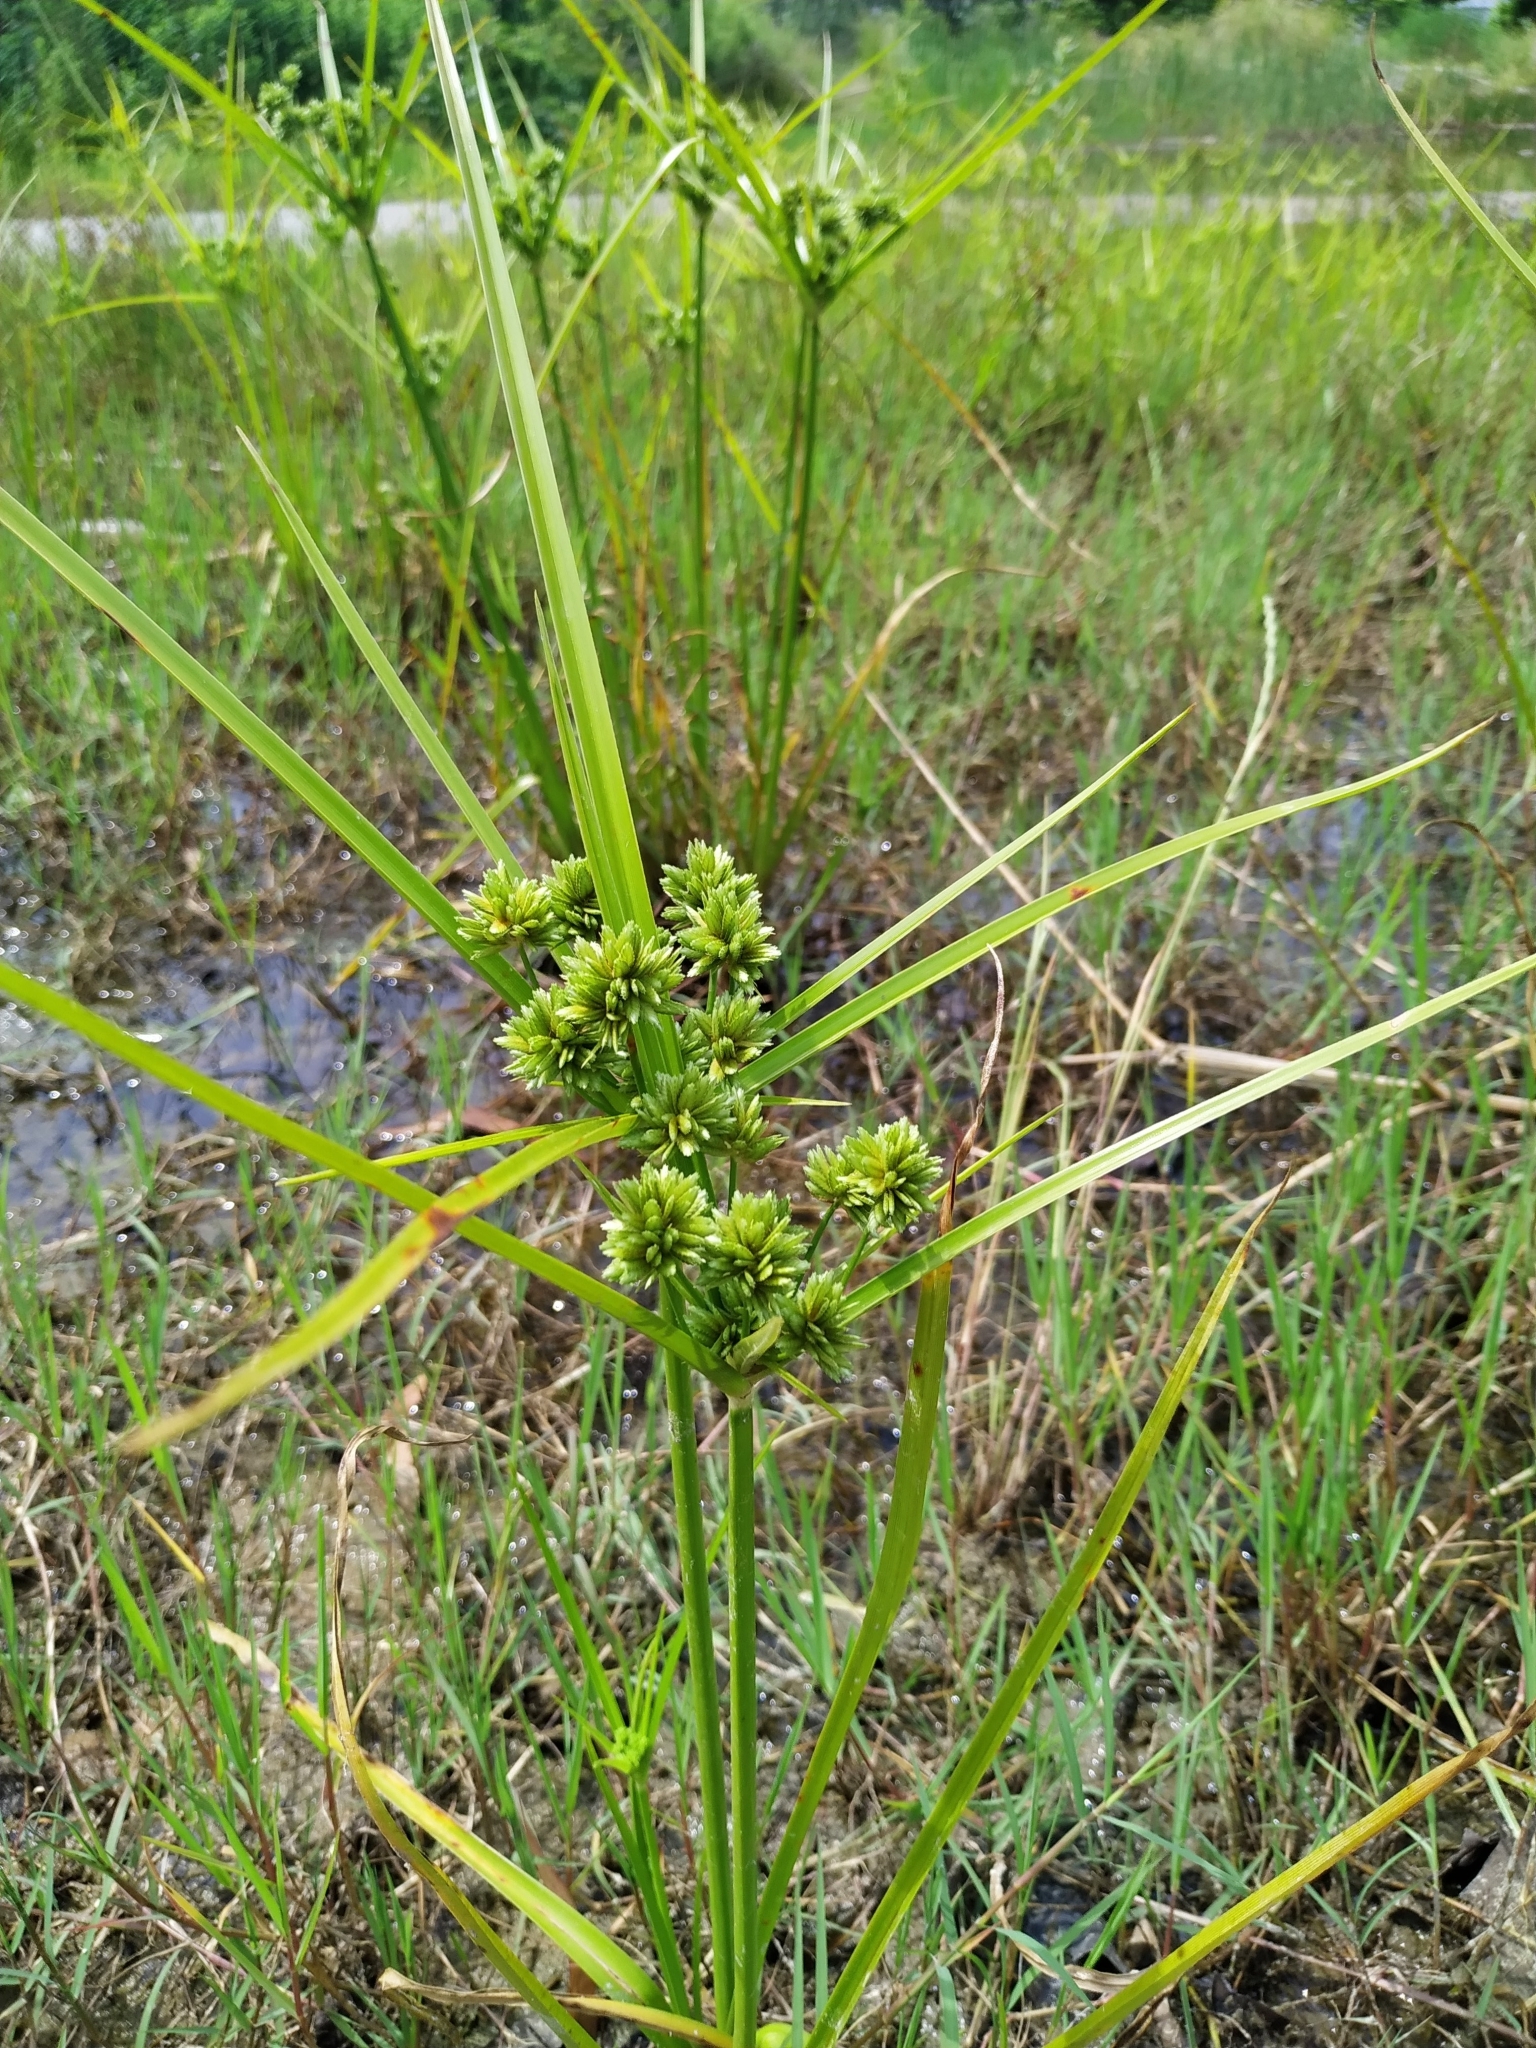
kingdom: Plantae
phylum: Tracheophyta
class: Liliopsida
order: Poales
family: Cyperaceae
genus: Cyperus
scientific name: Cyperus eragrostis
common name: Tall flatsedge
